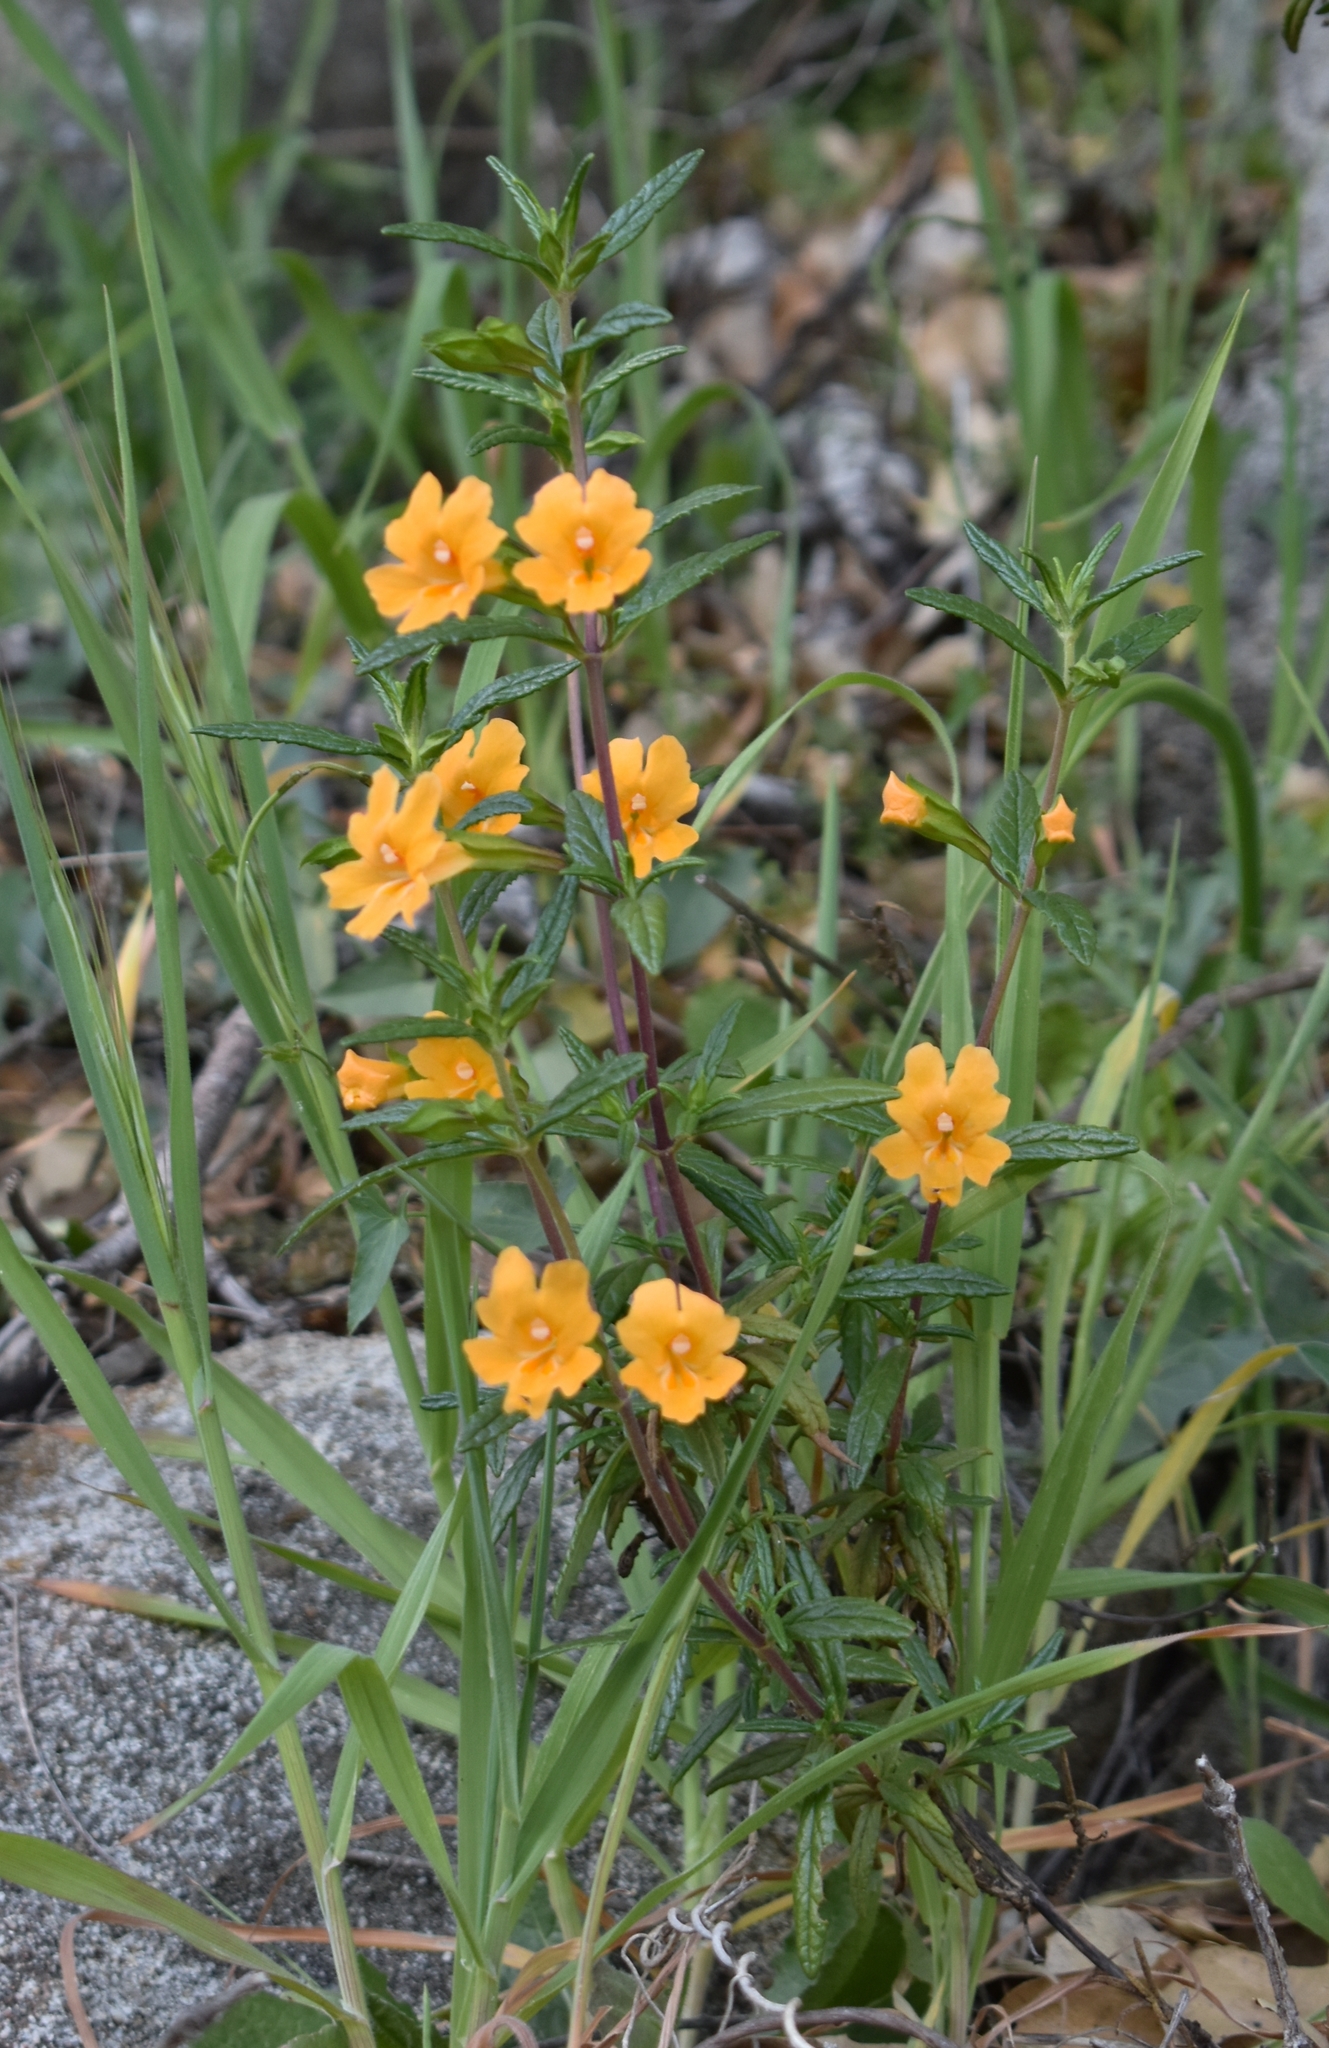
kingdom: Plantae
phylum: Tracheophyta
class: Magnoliopsida
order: Lamiales
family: Phrymaceae
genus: Diplacus
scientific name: Diplacus aurantiacus
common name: Bush monkey-flower
